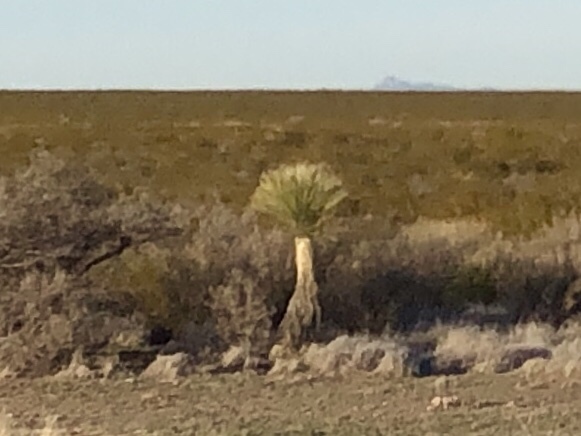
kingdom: Plantae
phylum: Tracheophyta
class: Liliopsida
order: Asparagales
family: Asparagaceae
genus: Yucca
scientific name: Yucca elata
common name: Palmella
